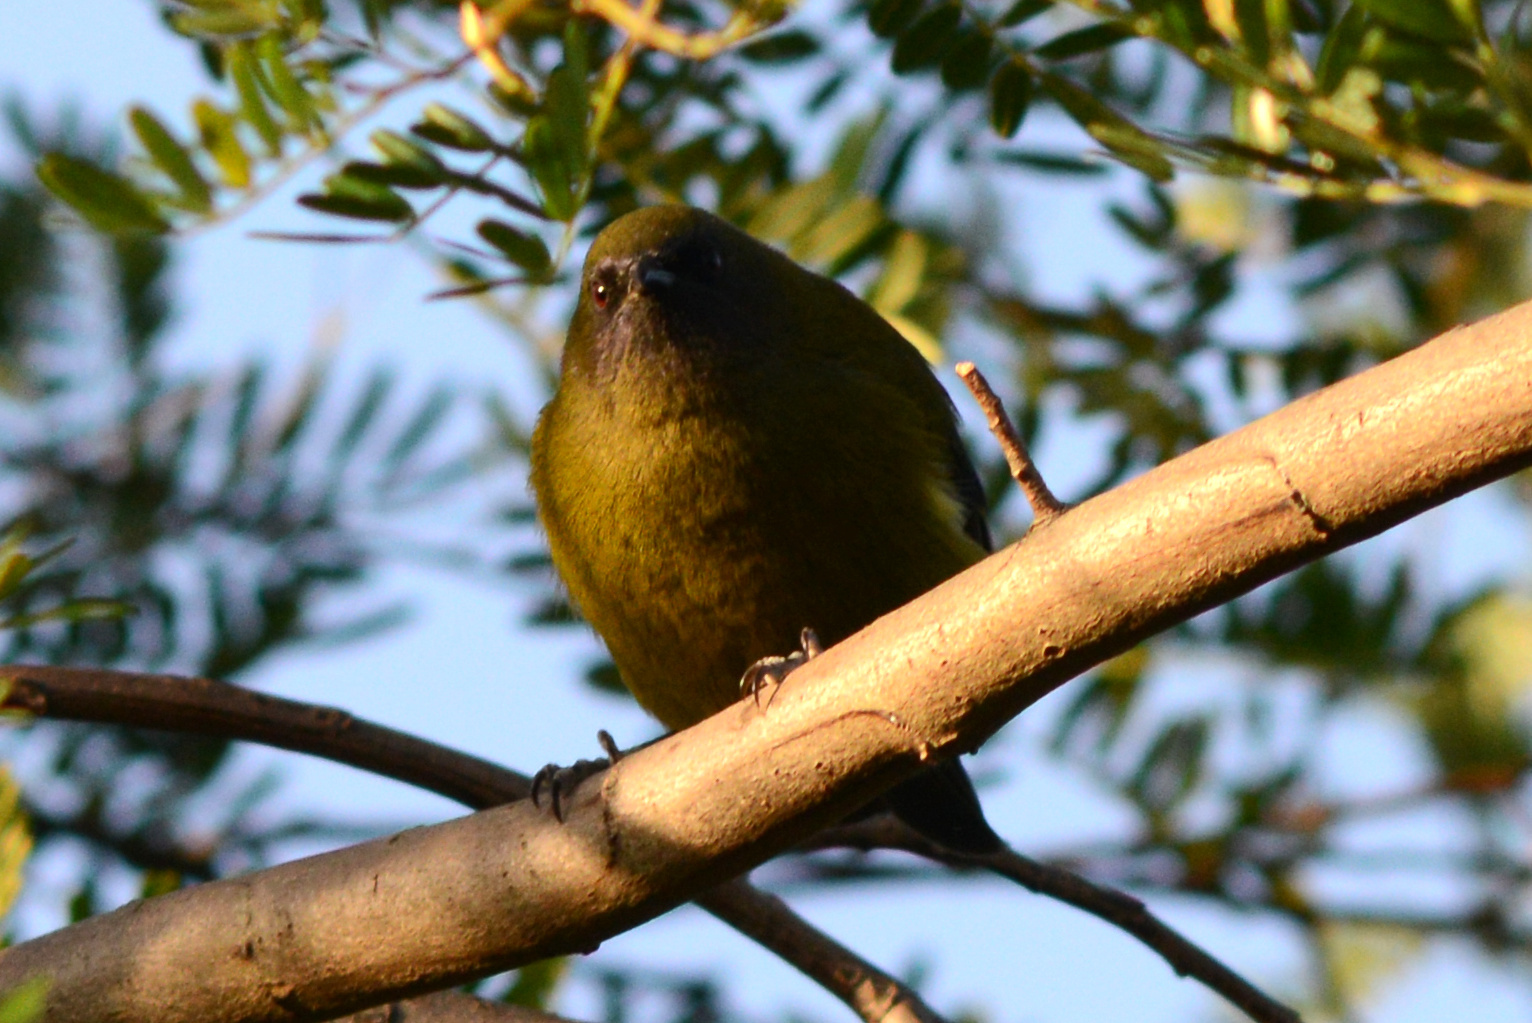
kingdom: Animalia
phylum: Chordata
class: Aves
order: Passeriformes
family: Meliphagidae
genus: Anthornis
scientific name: Anthornis melanura
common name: New zealand bellbird
